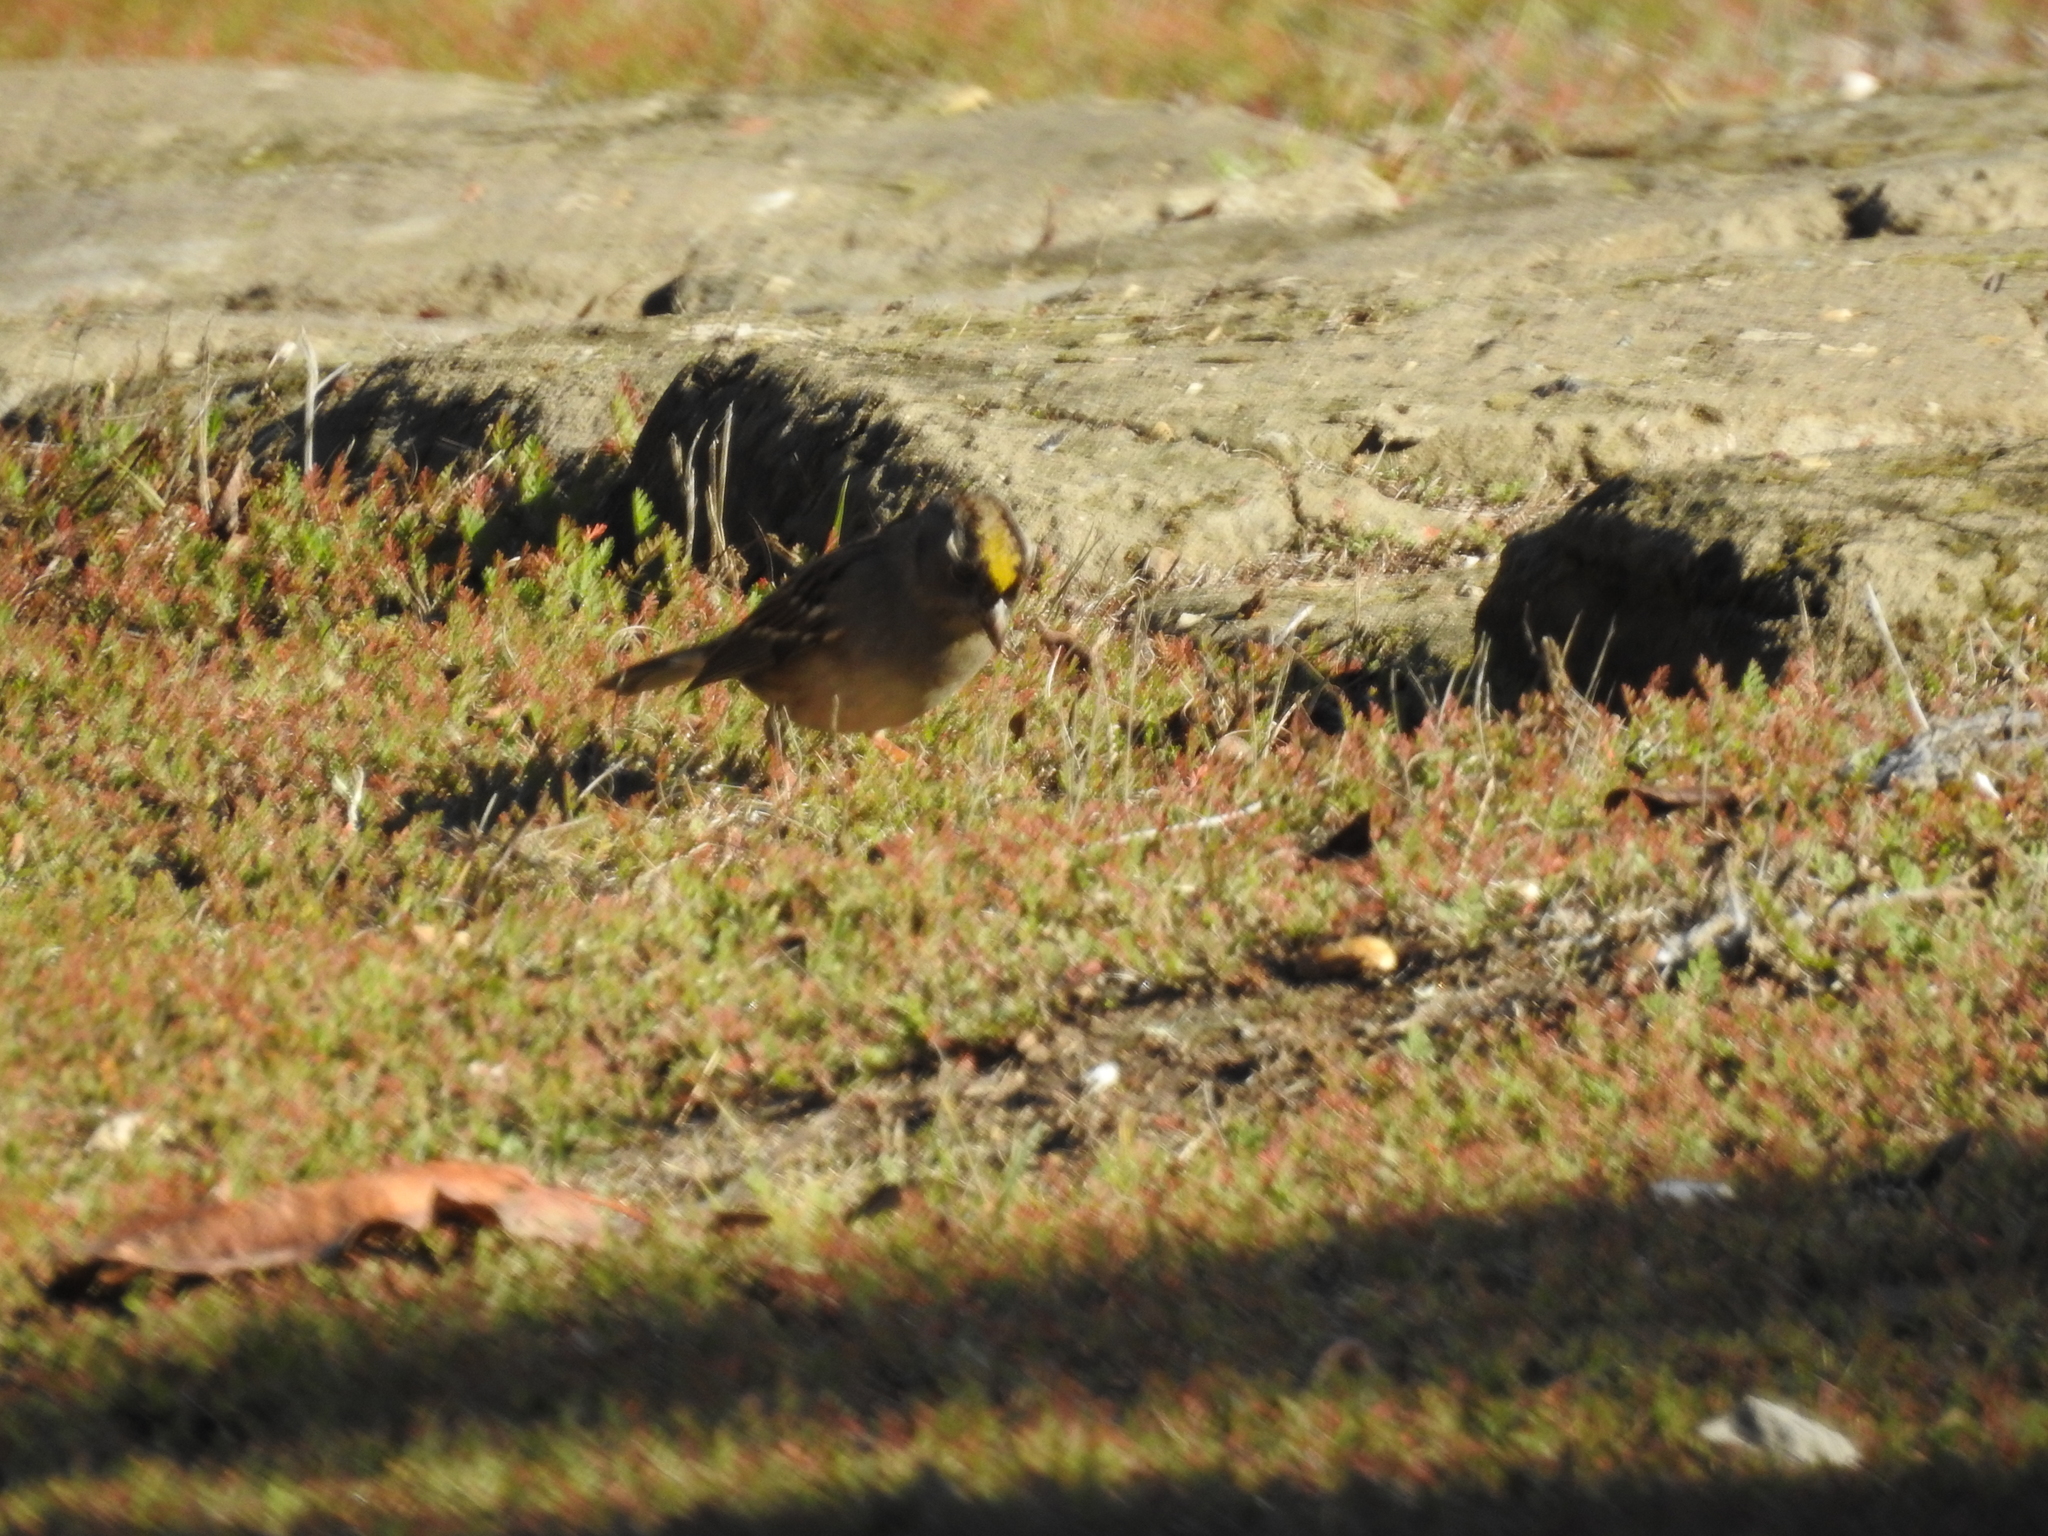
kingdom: Animalia
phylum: Chordata
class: Aves
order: Passeriformes
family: Passerellidae
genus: Zonotrichia
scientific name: Zonotrichia atricapilla
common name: Golden-crowned sparrow
